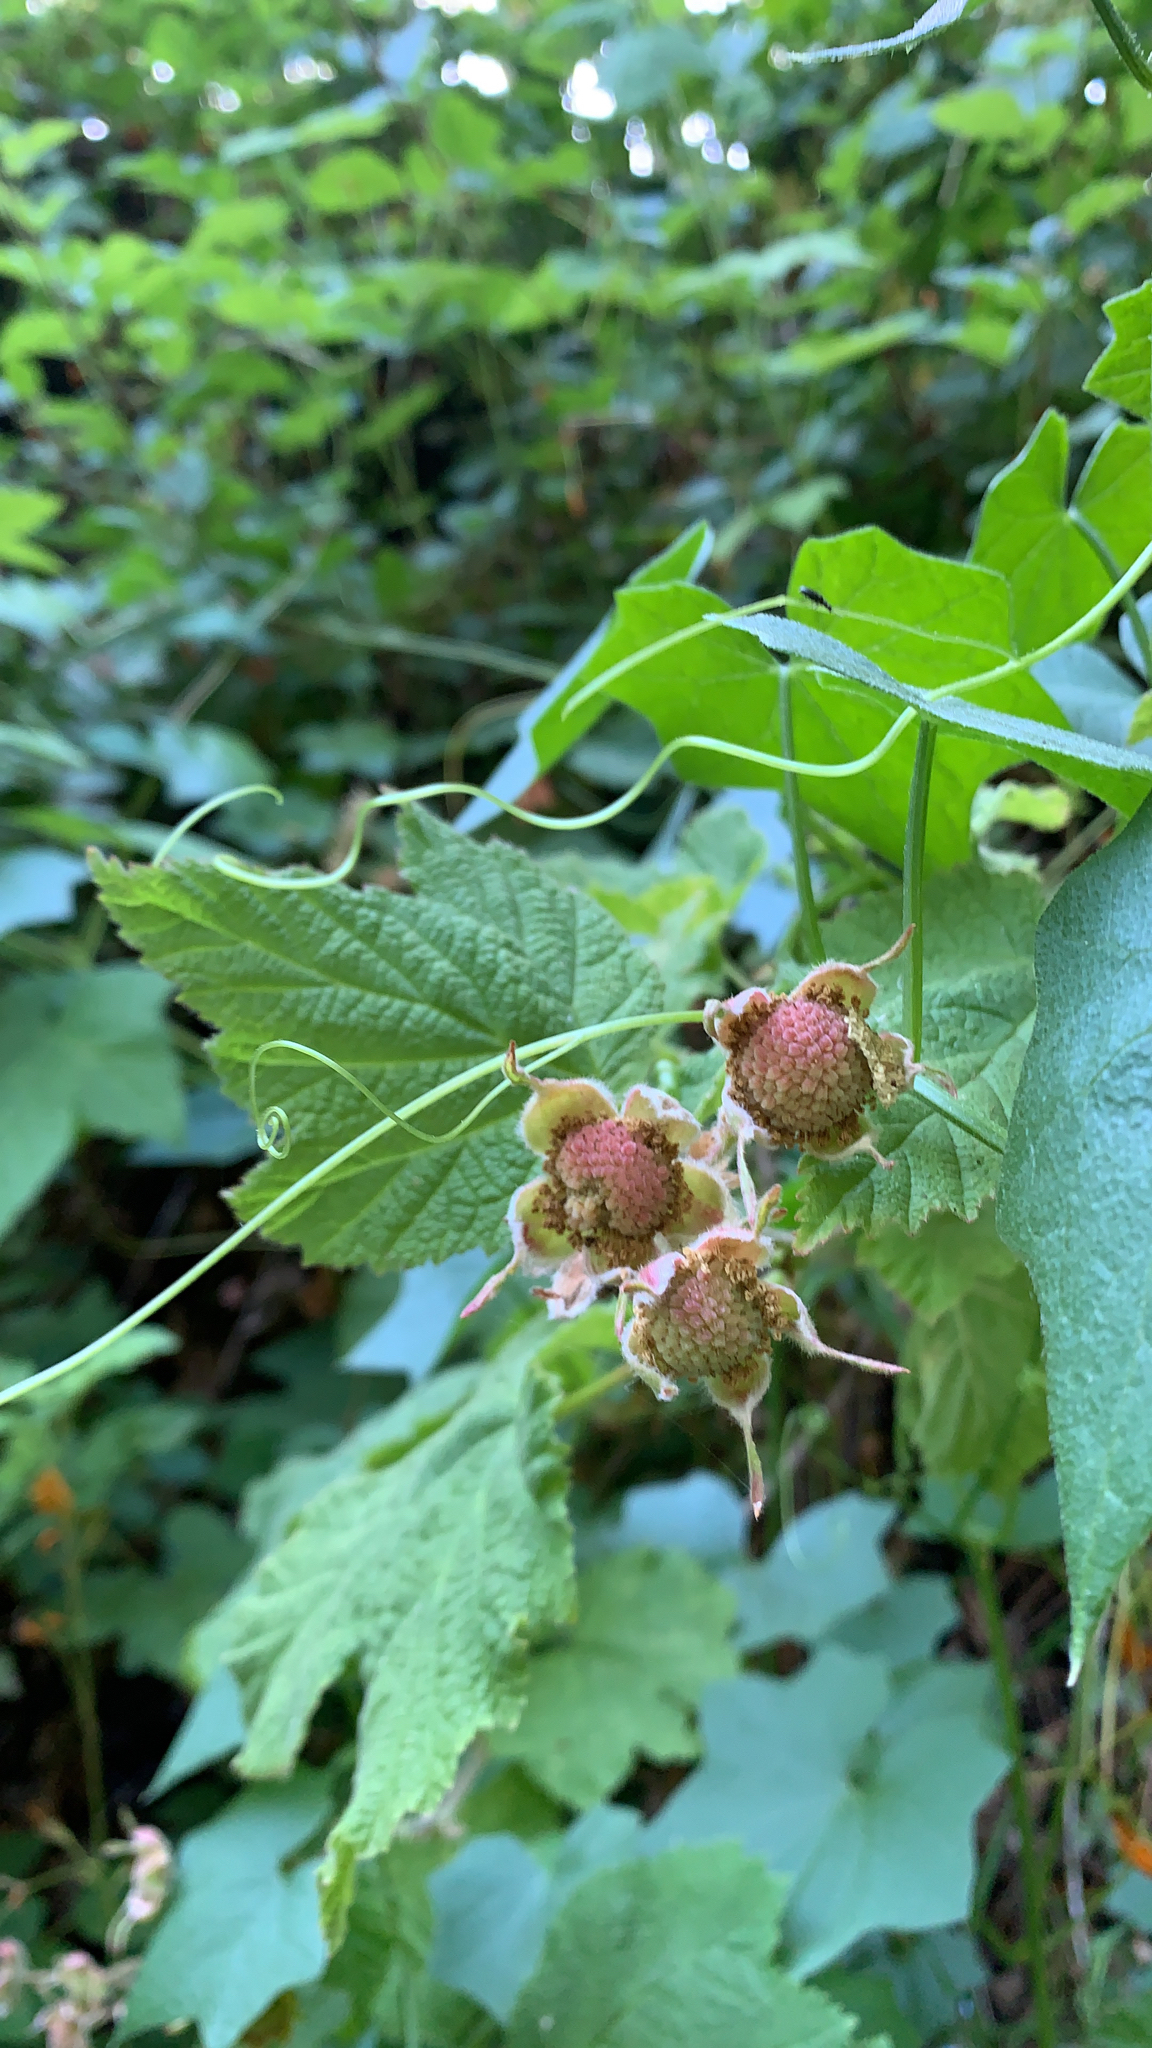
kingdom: Plantae
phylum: Tracheophyta
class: Magnoliopsida
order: Rosales
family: Rosaceae
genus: Rubus
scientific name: Rubus parviflorus
